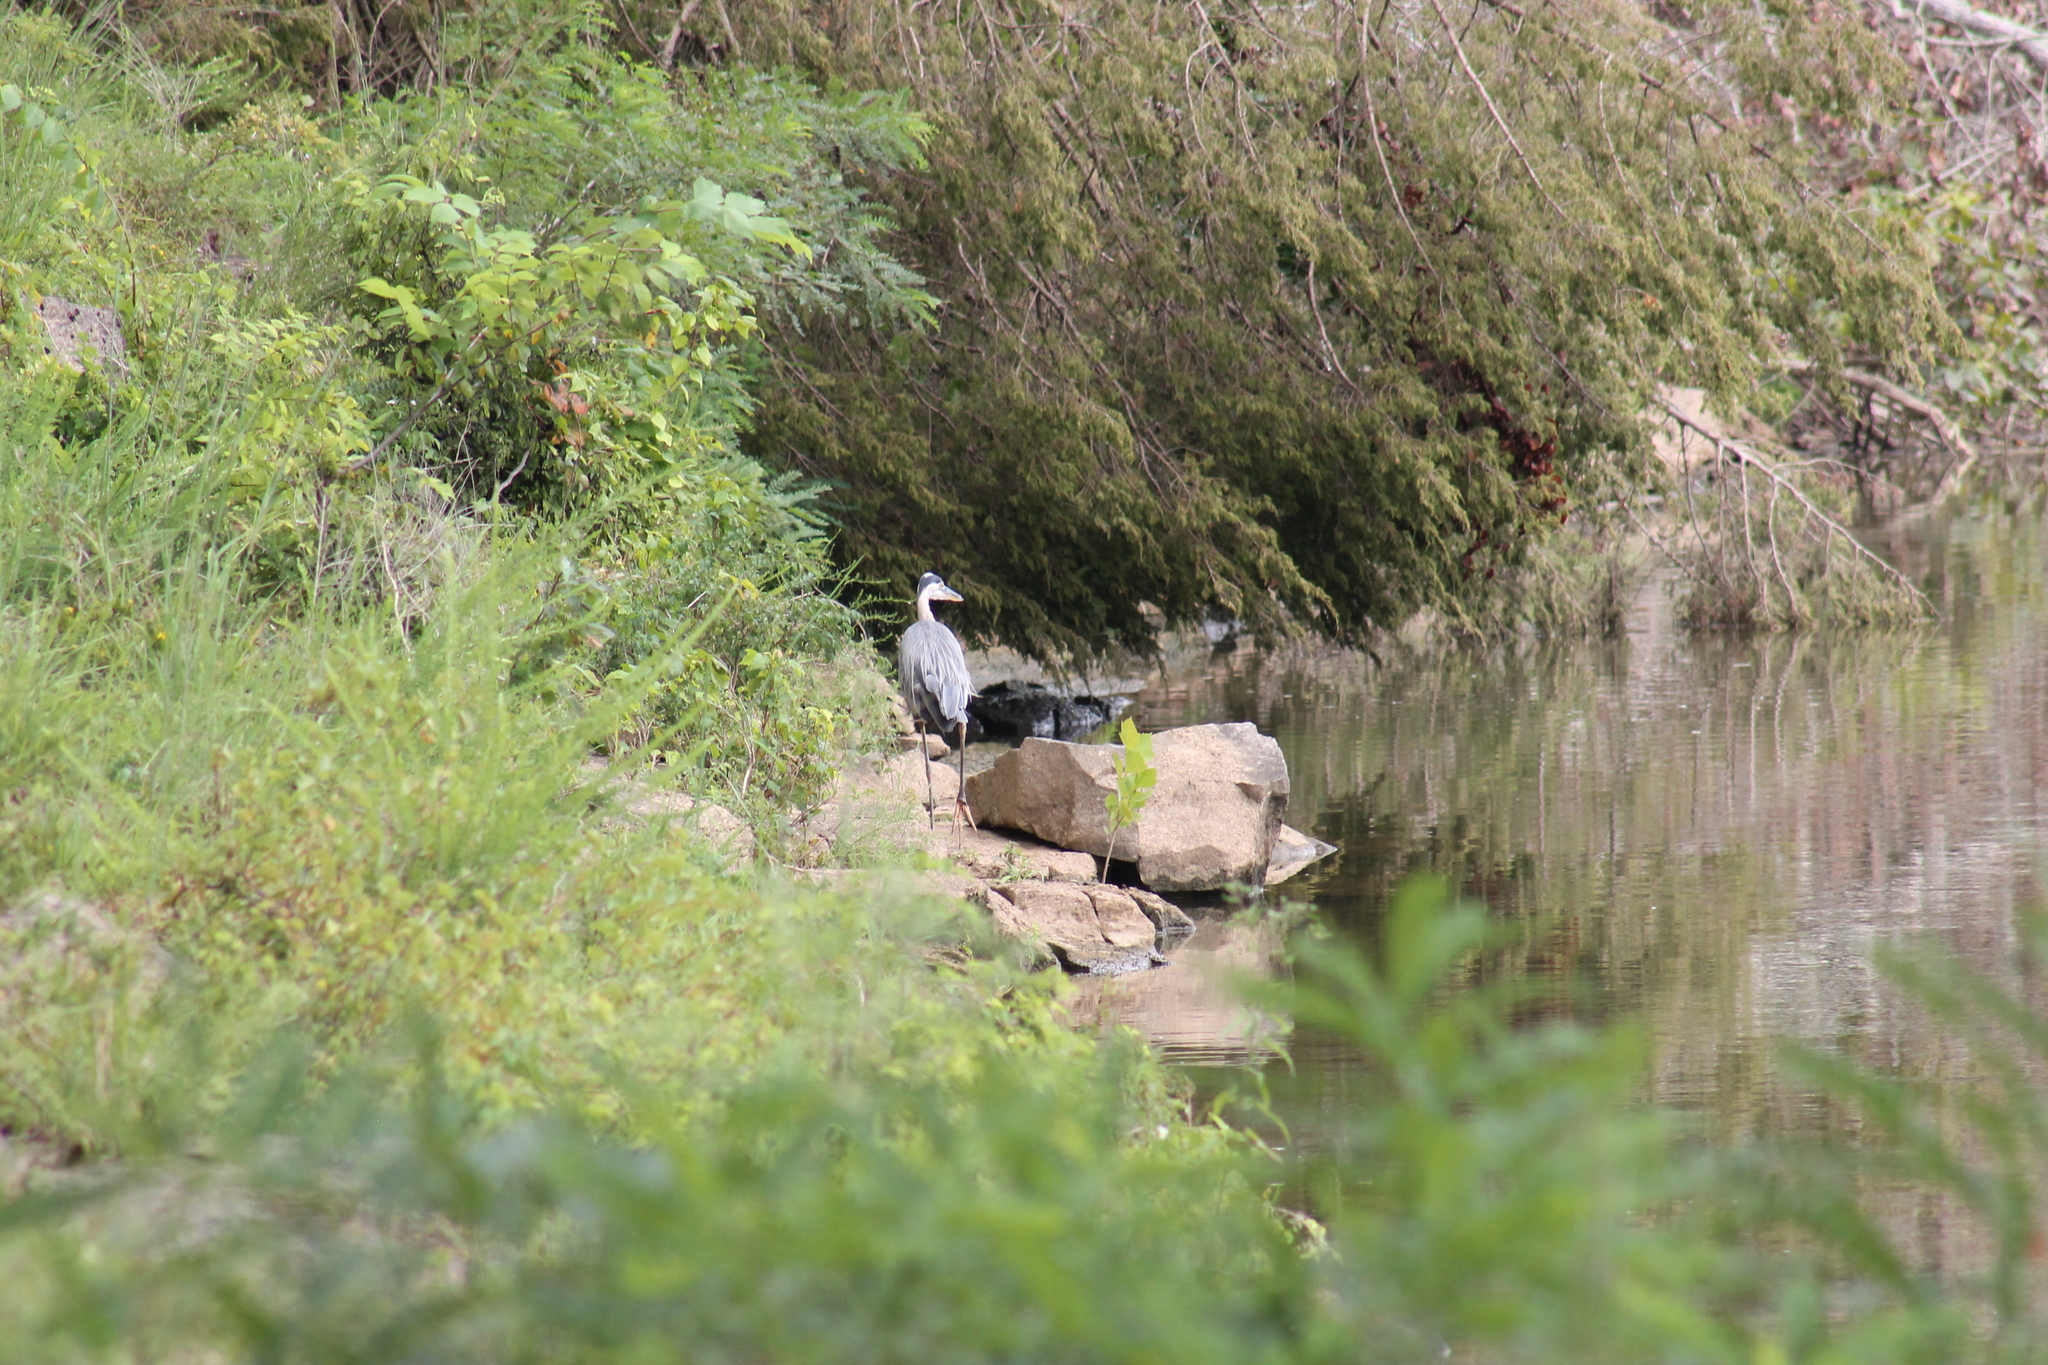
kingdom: Animalia
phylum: Chordata
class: Aves
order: Pelecaniformes
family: Ardeidae
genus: Ardea
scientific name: Ardea herodias
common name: Great blue heron
